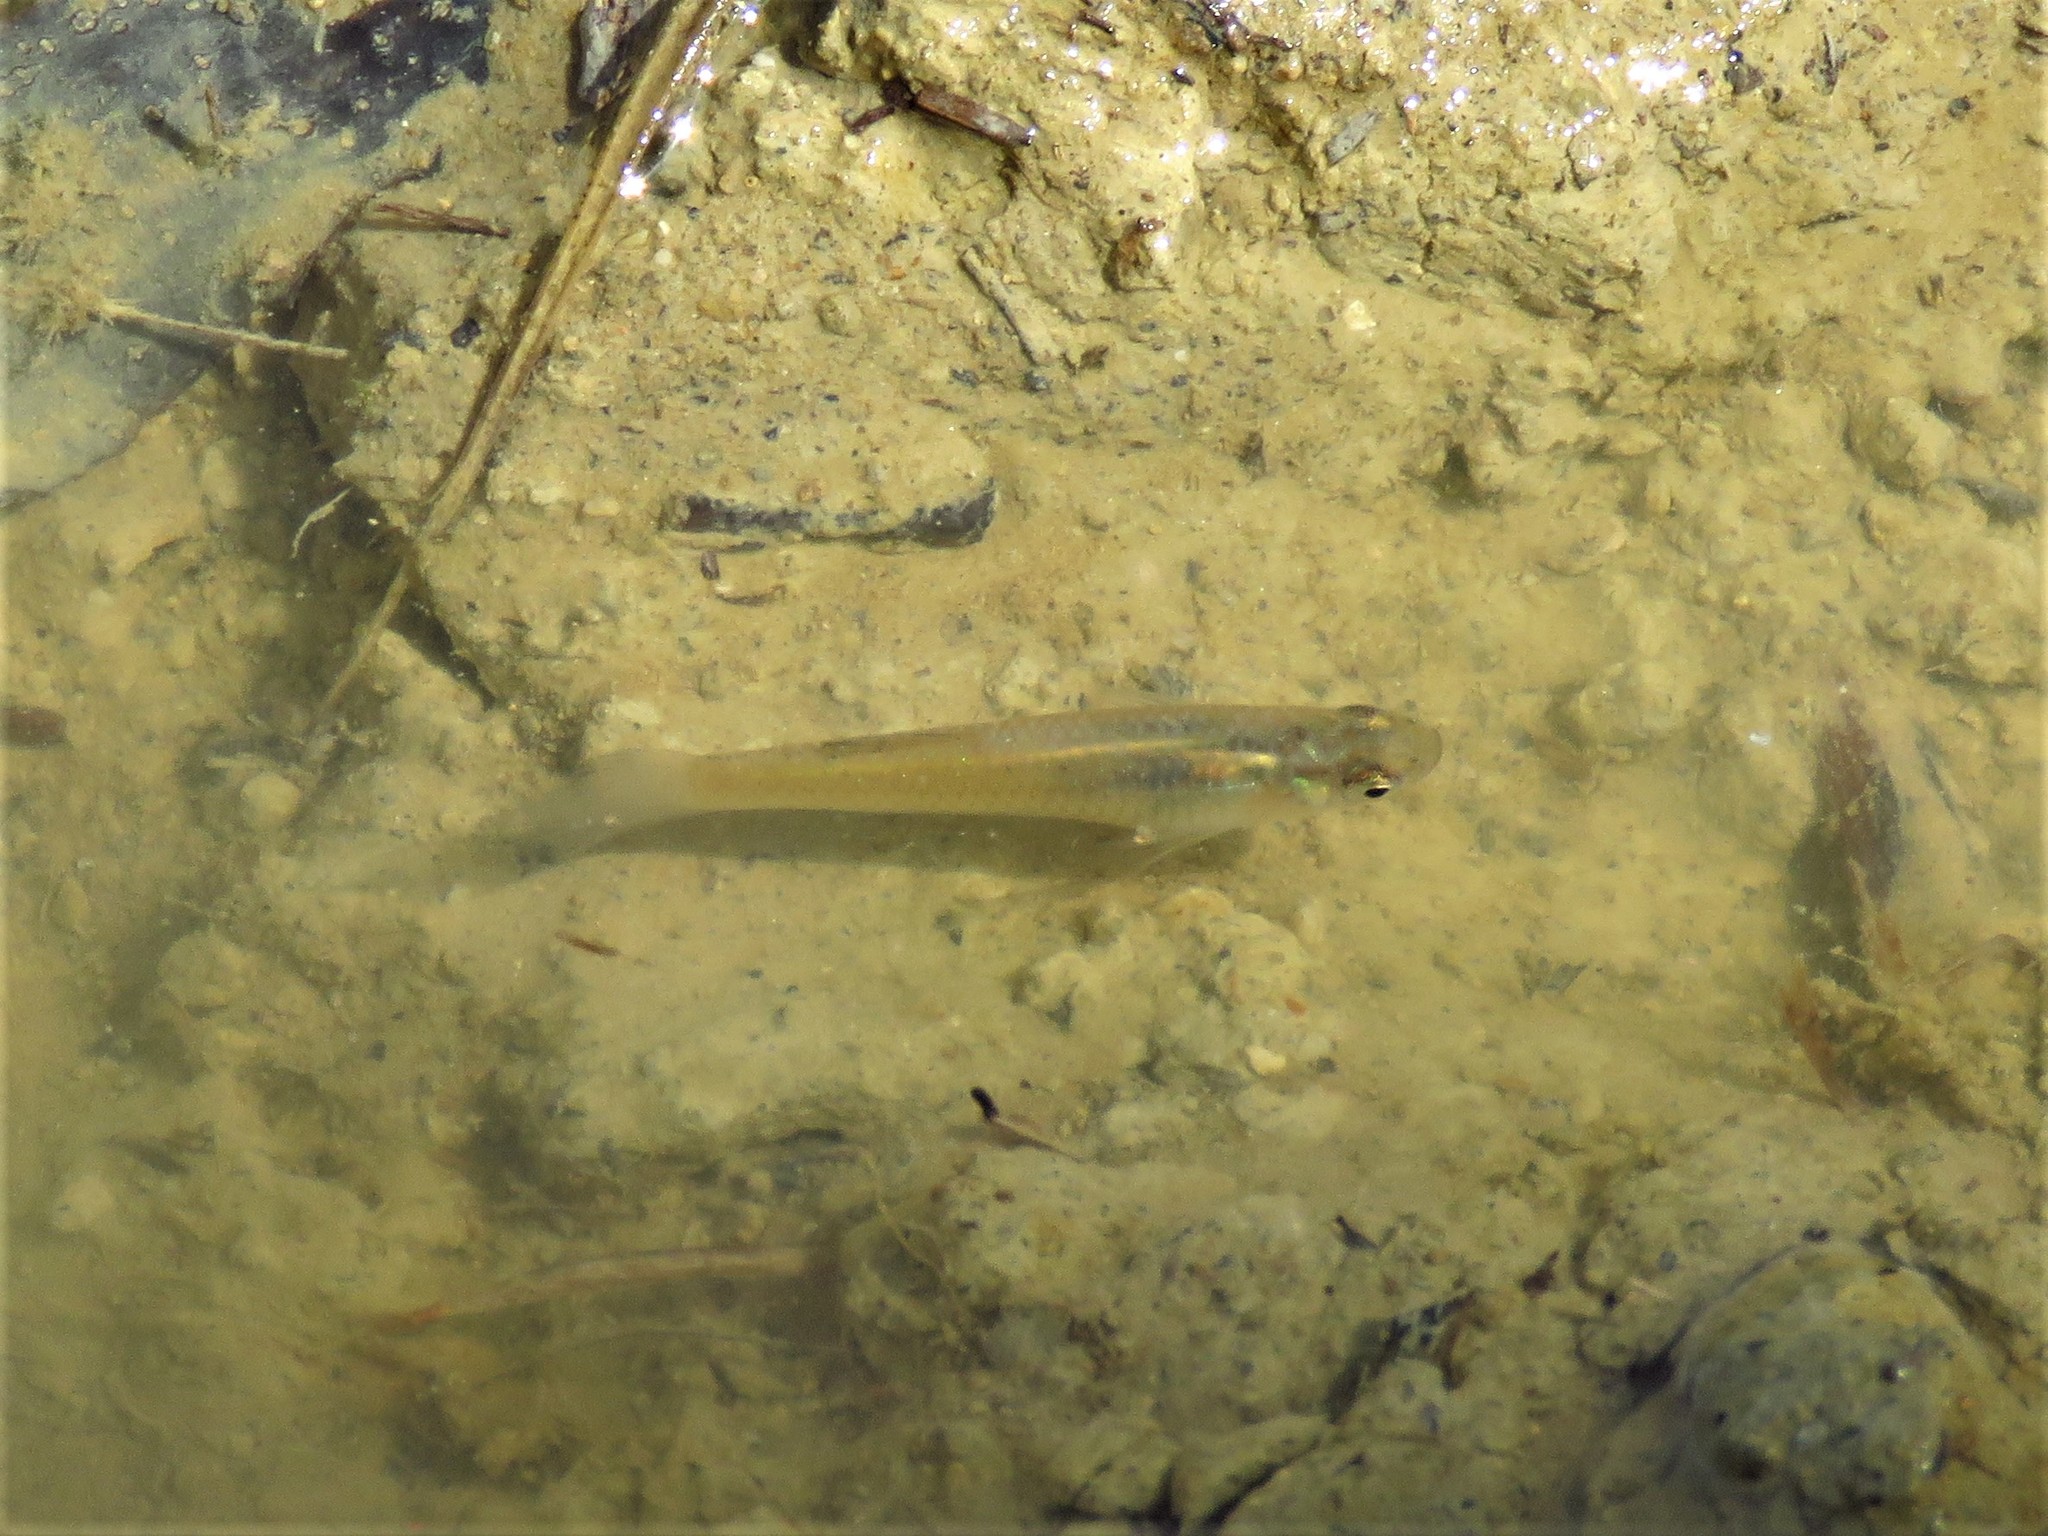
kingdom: Animalia
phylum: Chordata
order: Cyprinodontiformes
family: Poeciliidae
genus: Gambusia
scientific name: Gambusia affinis
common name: Mosquitofish
